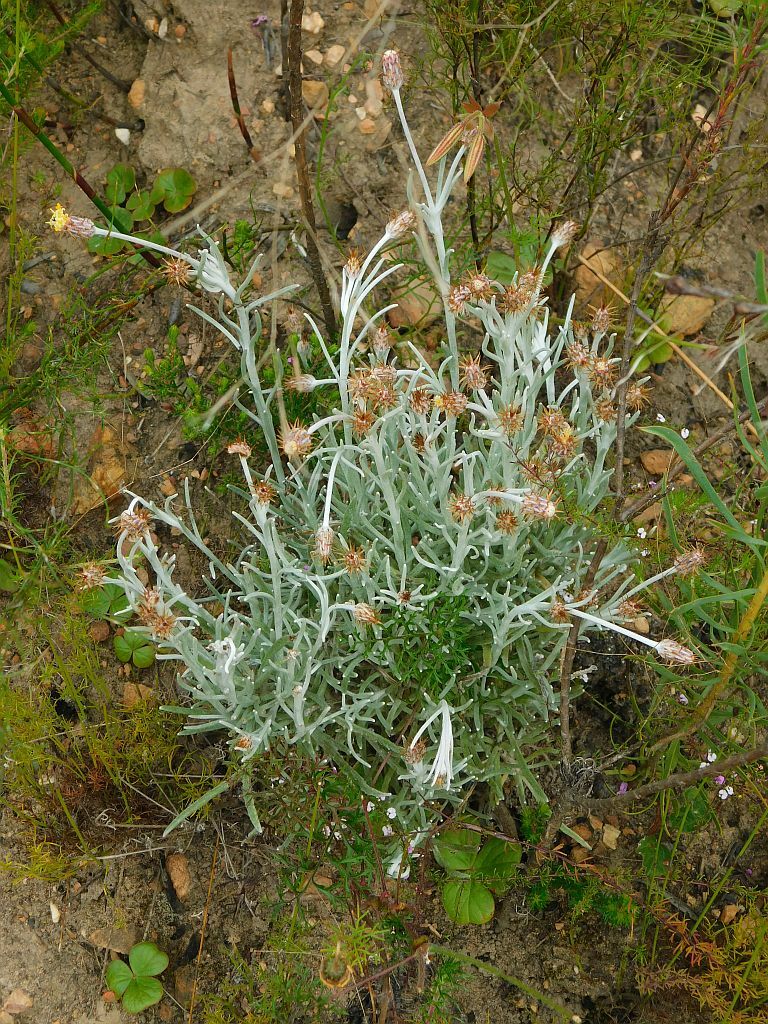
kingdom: Plantae
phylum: Tracheophyta
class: Magnoliopsida
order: Asterales
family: Asteraceae
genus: Syncarpha
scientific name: Syncarpha gnaphaloides
